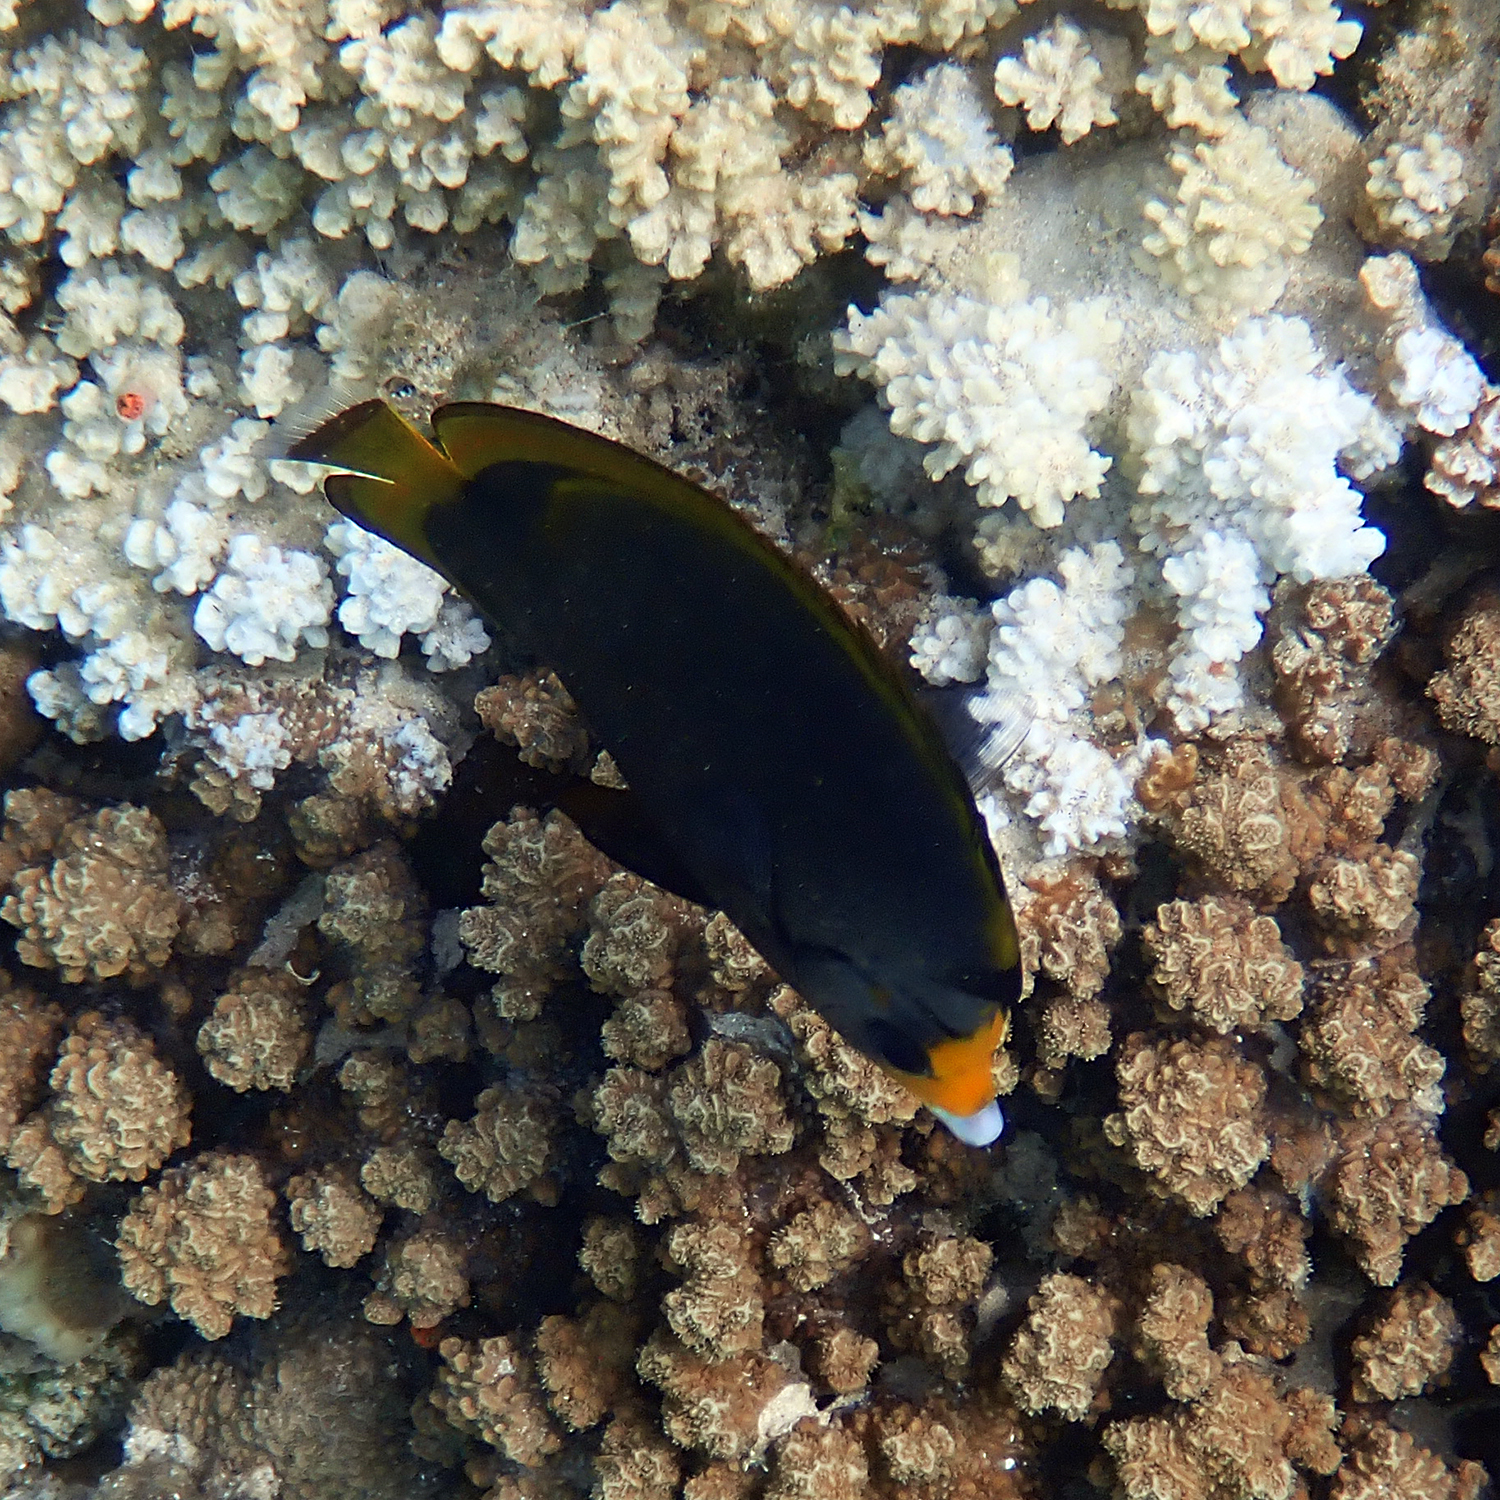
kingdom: Animalia
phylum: Chordata
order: Perciformes
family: Chaetodontidae
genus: Chaetodon
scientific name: Chaetodon flavirostris
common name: Black butterflyfish
